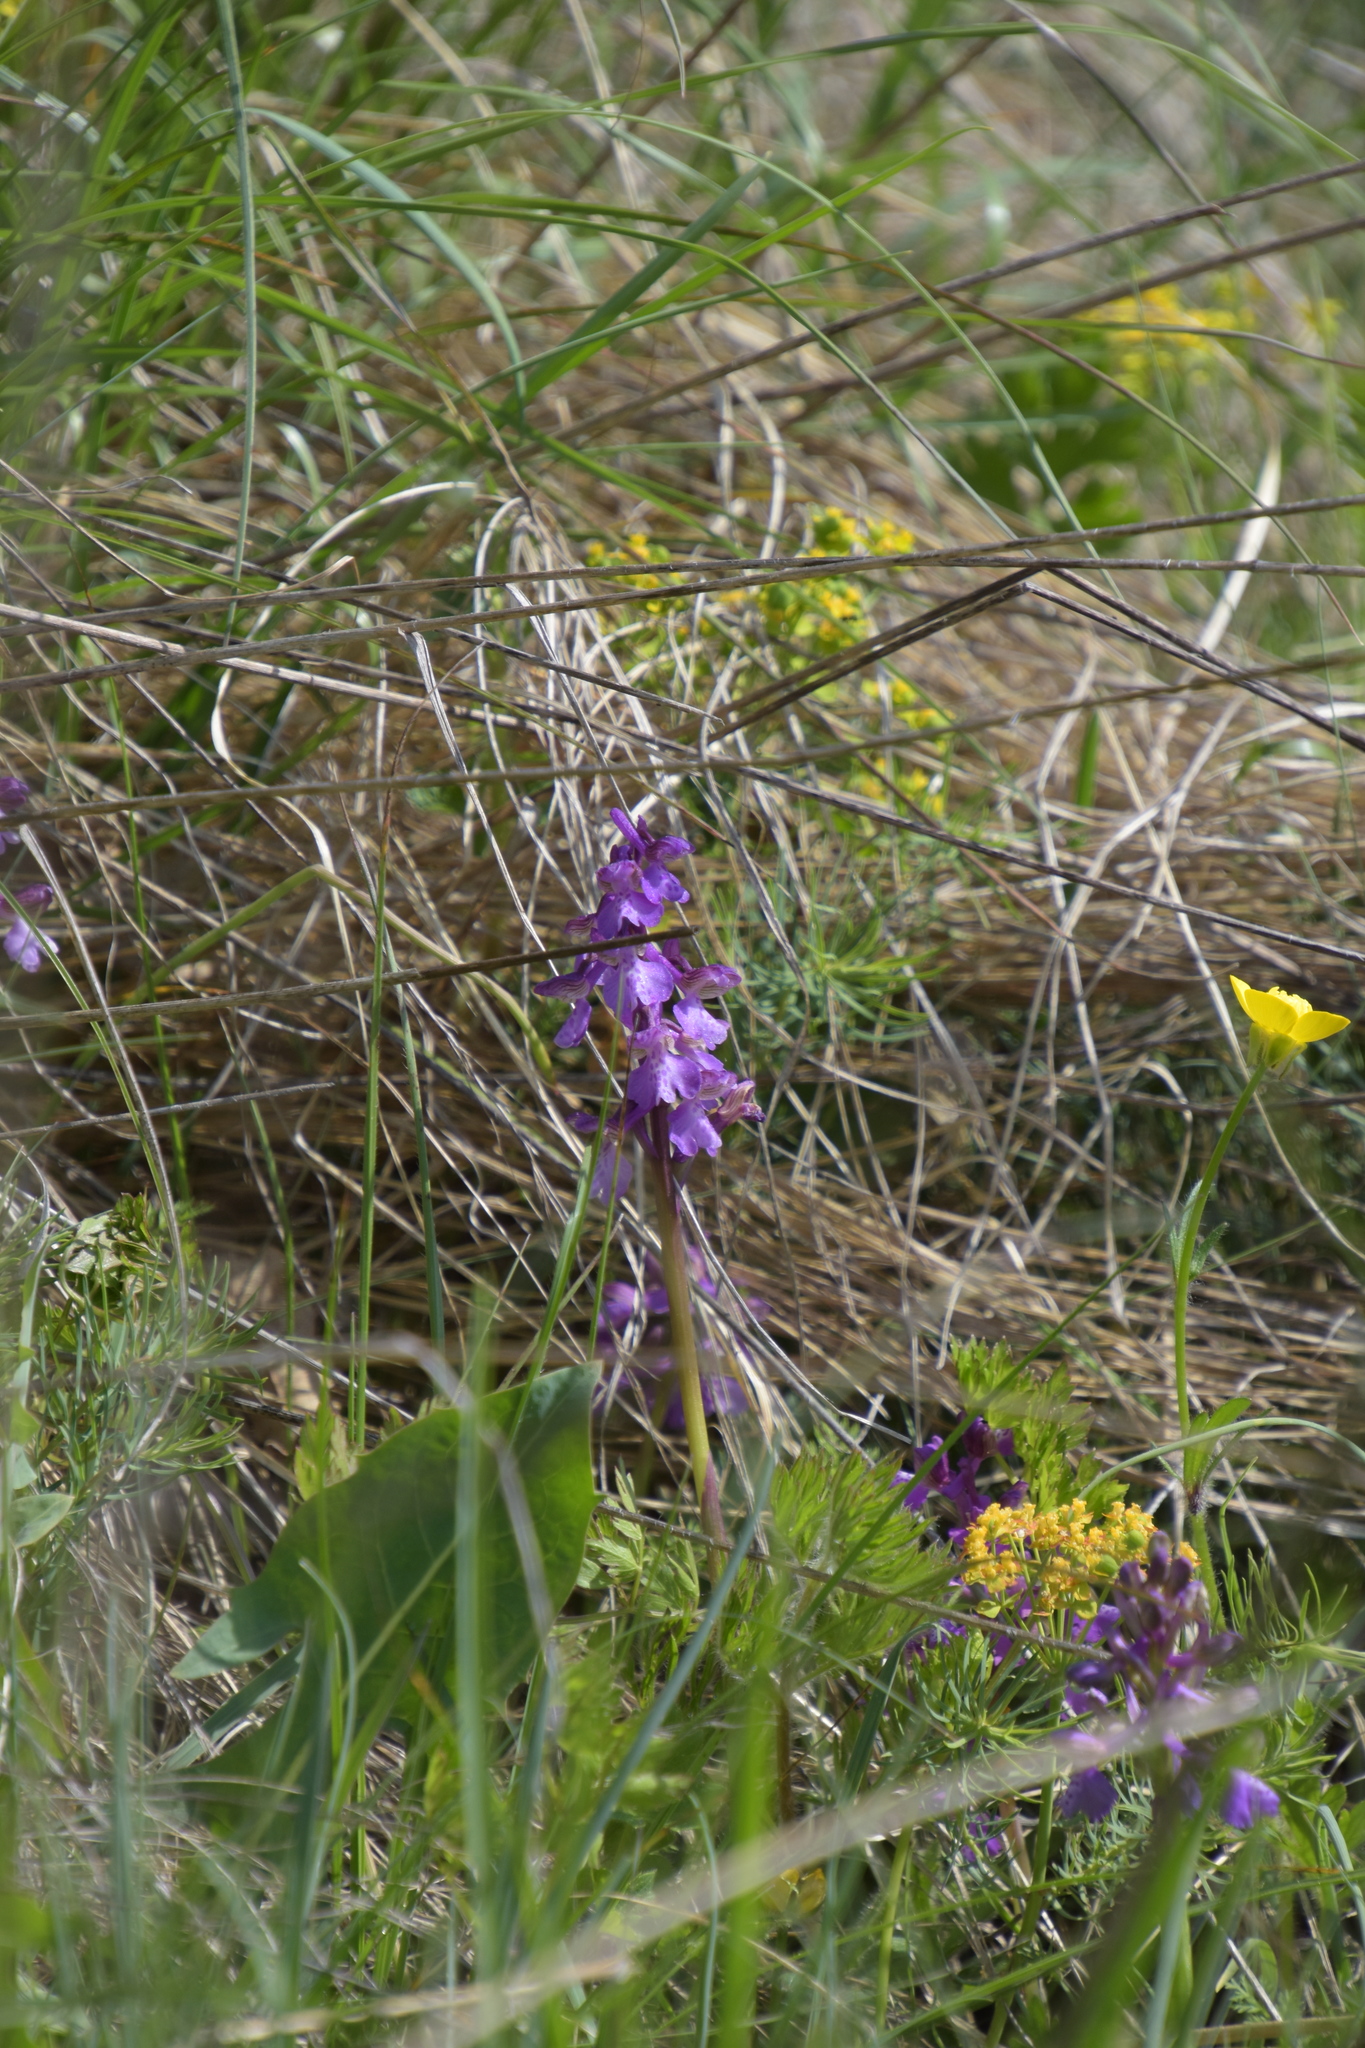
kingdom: Plantae
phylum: Tracheophyta
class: Liliopsida
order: Asparagales
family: Orchidaceae
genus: Anacamptis
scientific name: Anacamptis morio
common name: Green-winged orchid
